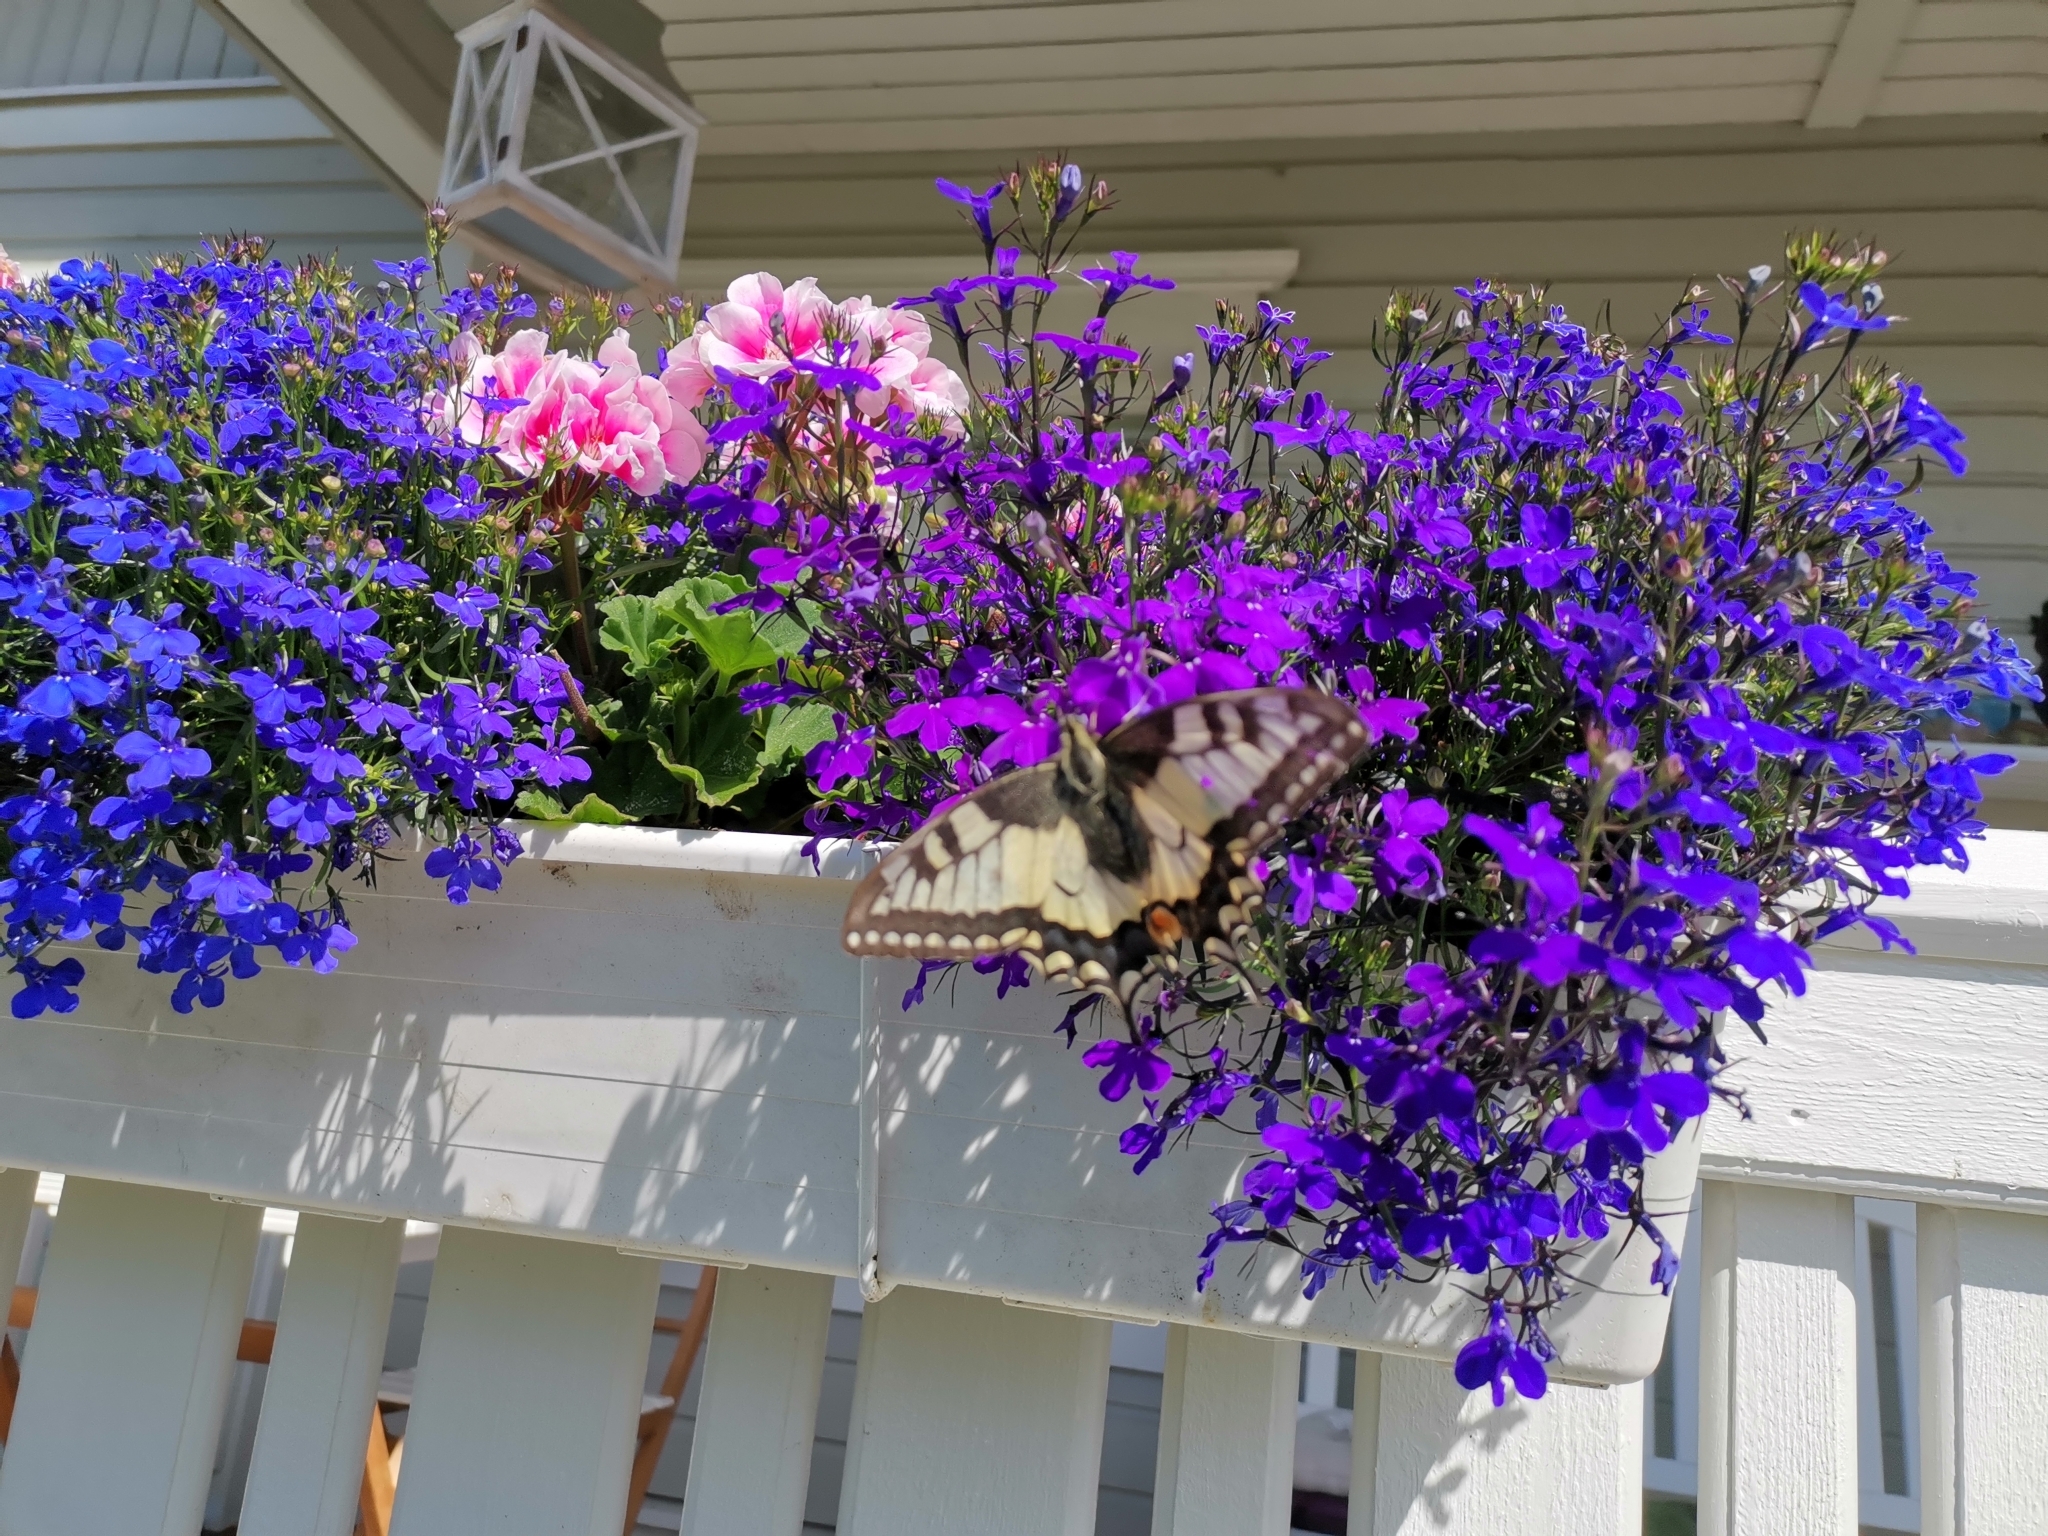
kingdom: Animalia
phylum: Arthropoda
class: Insecta
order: Lepidoptera
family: Papilionidae
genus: Papilio
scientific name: Papilio machaon
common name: Swallowtail
